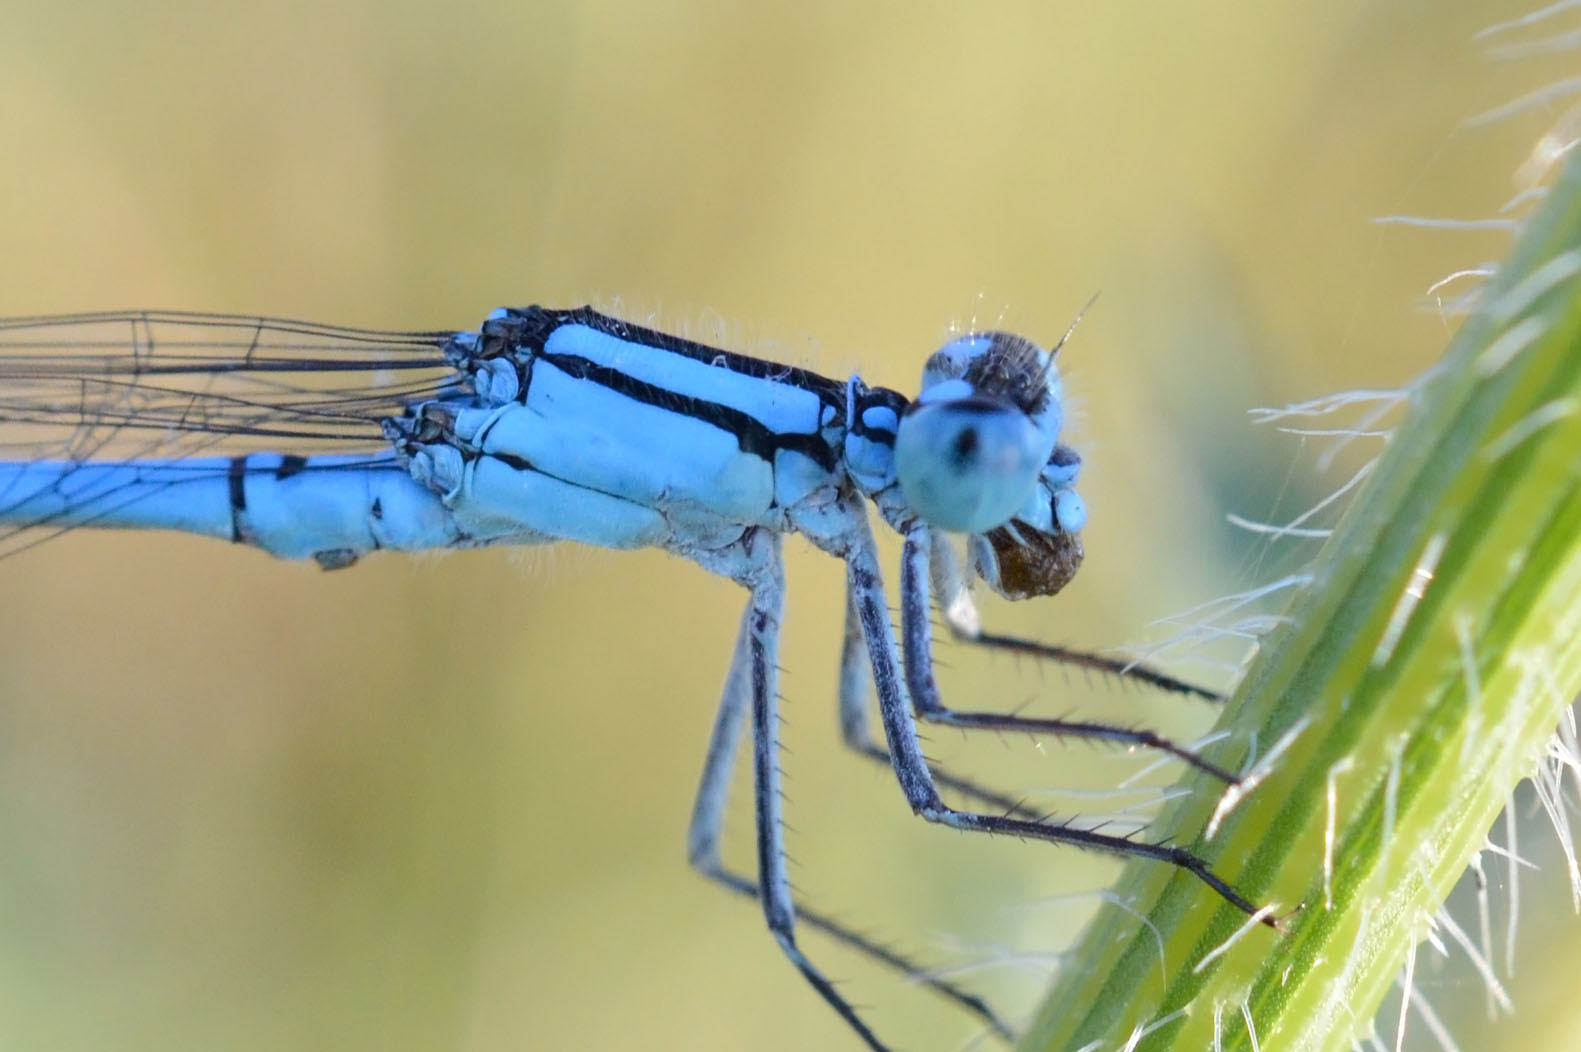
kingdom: Animalia
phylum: Arthropoda
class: Insecta
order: Odonata
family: Coenagrionidae
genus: Enallagma
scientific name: Enallagma cyathigerum
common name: Common blue damselfly
